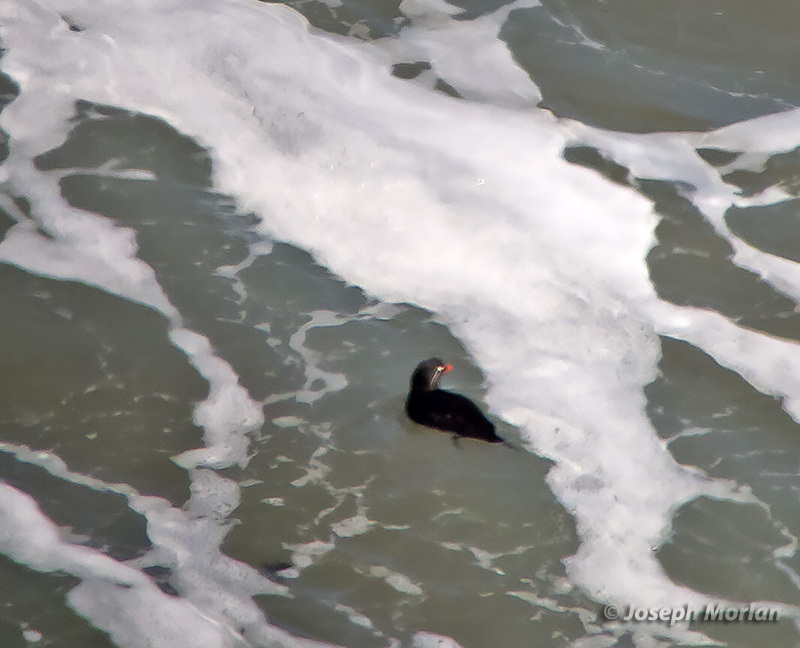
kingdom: Animalia
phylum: Chordata
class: Aves
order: Charadriiformes
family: Alcidae
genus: Aethia
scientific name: Aethia psittacula
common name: Parakeet auklet
